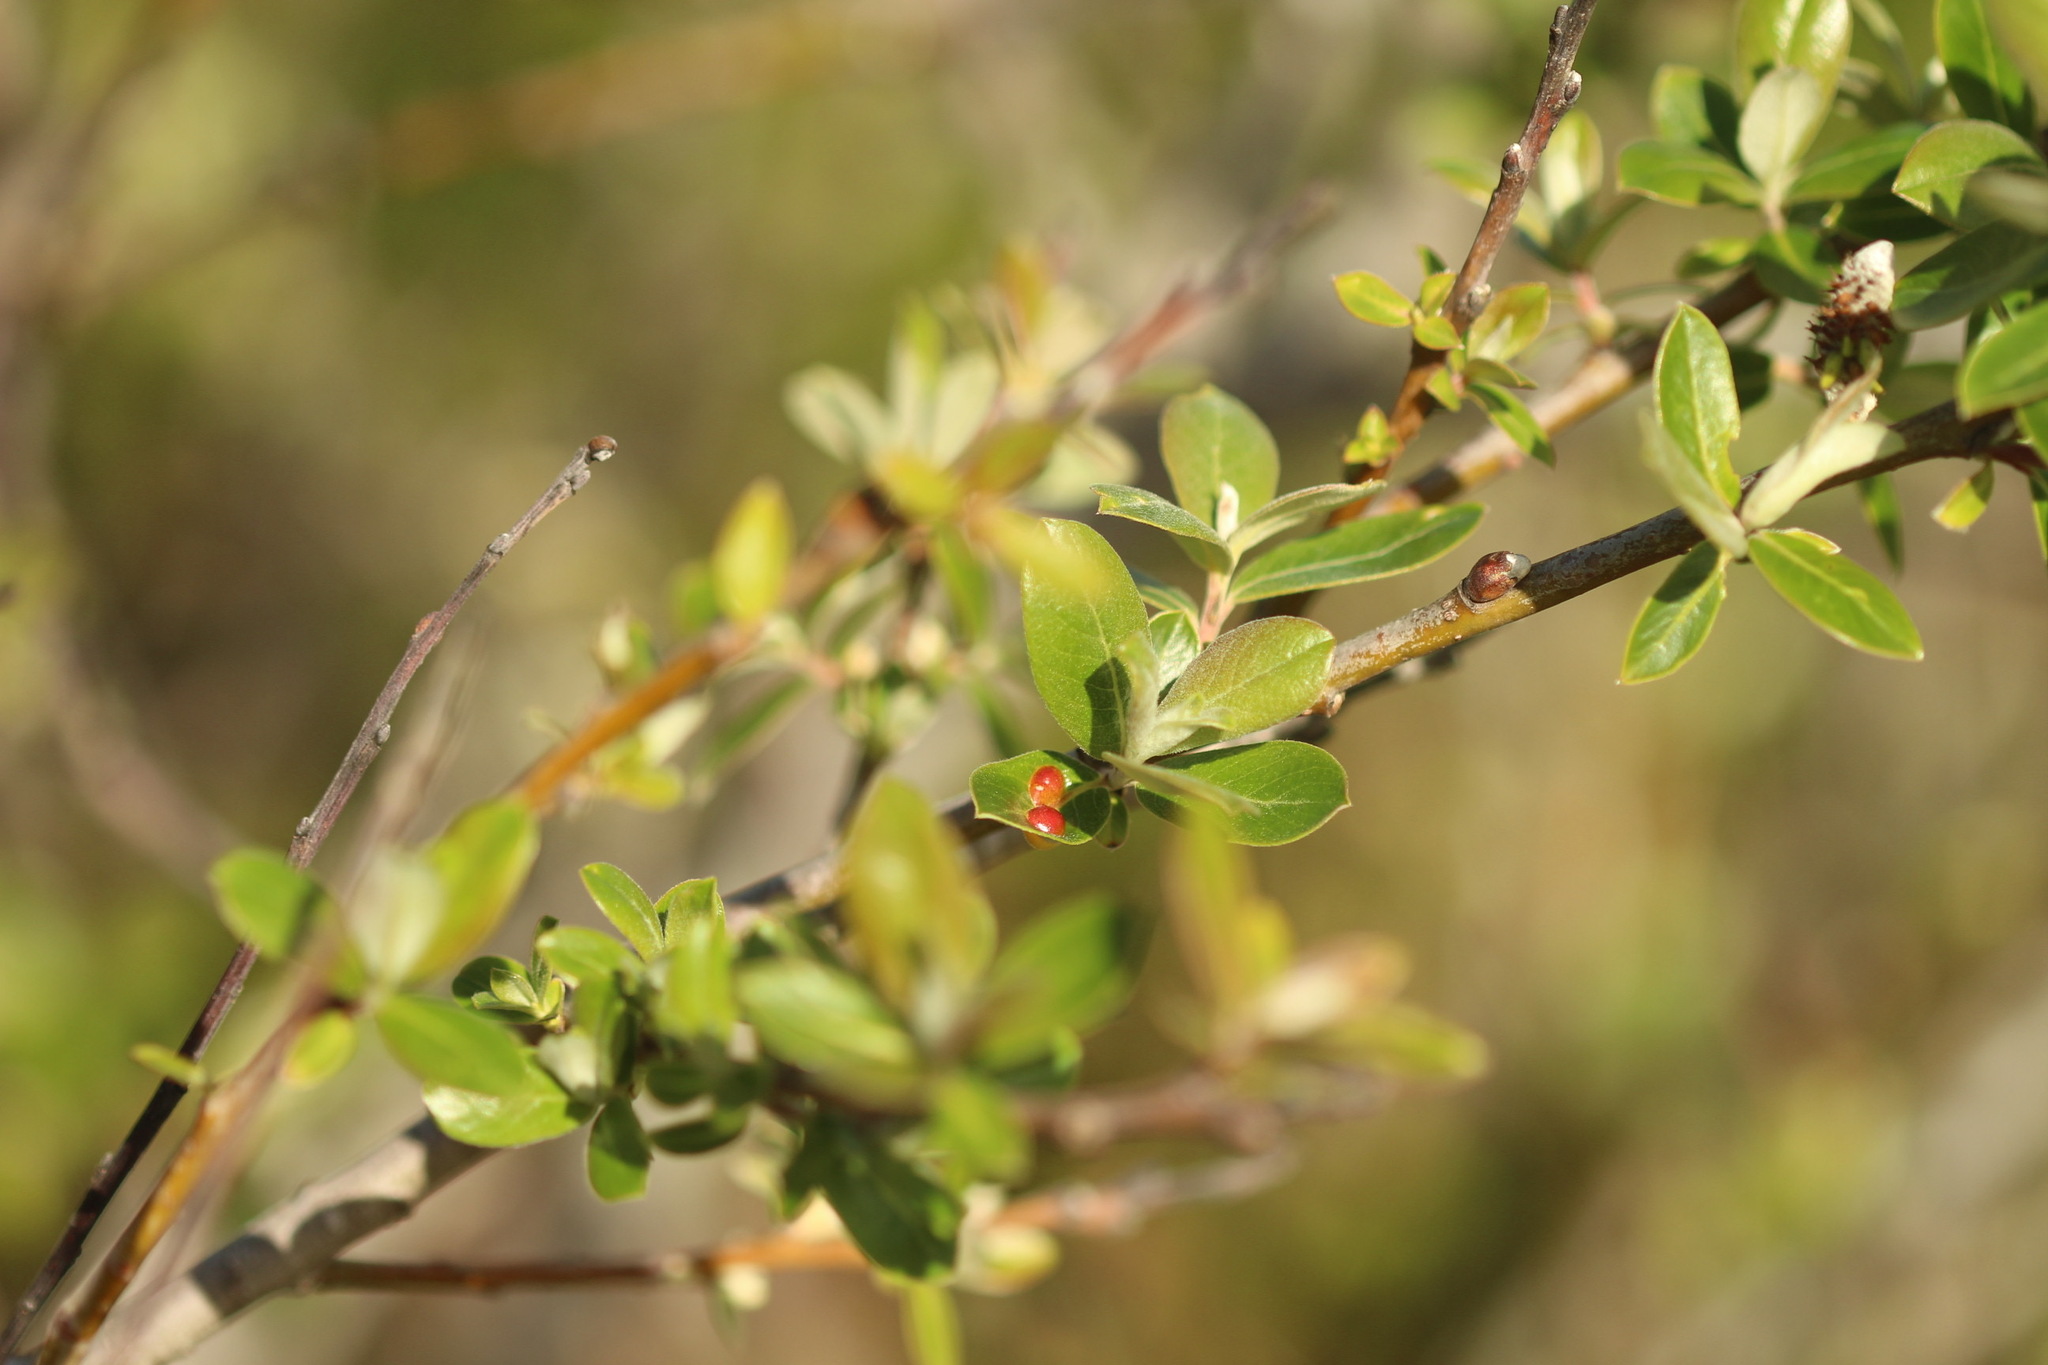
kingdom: Animalia
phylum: Arthropoda
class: Insecta
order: Hymenoptera
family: Tenthredinidae
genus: Euura
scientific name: Euura
